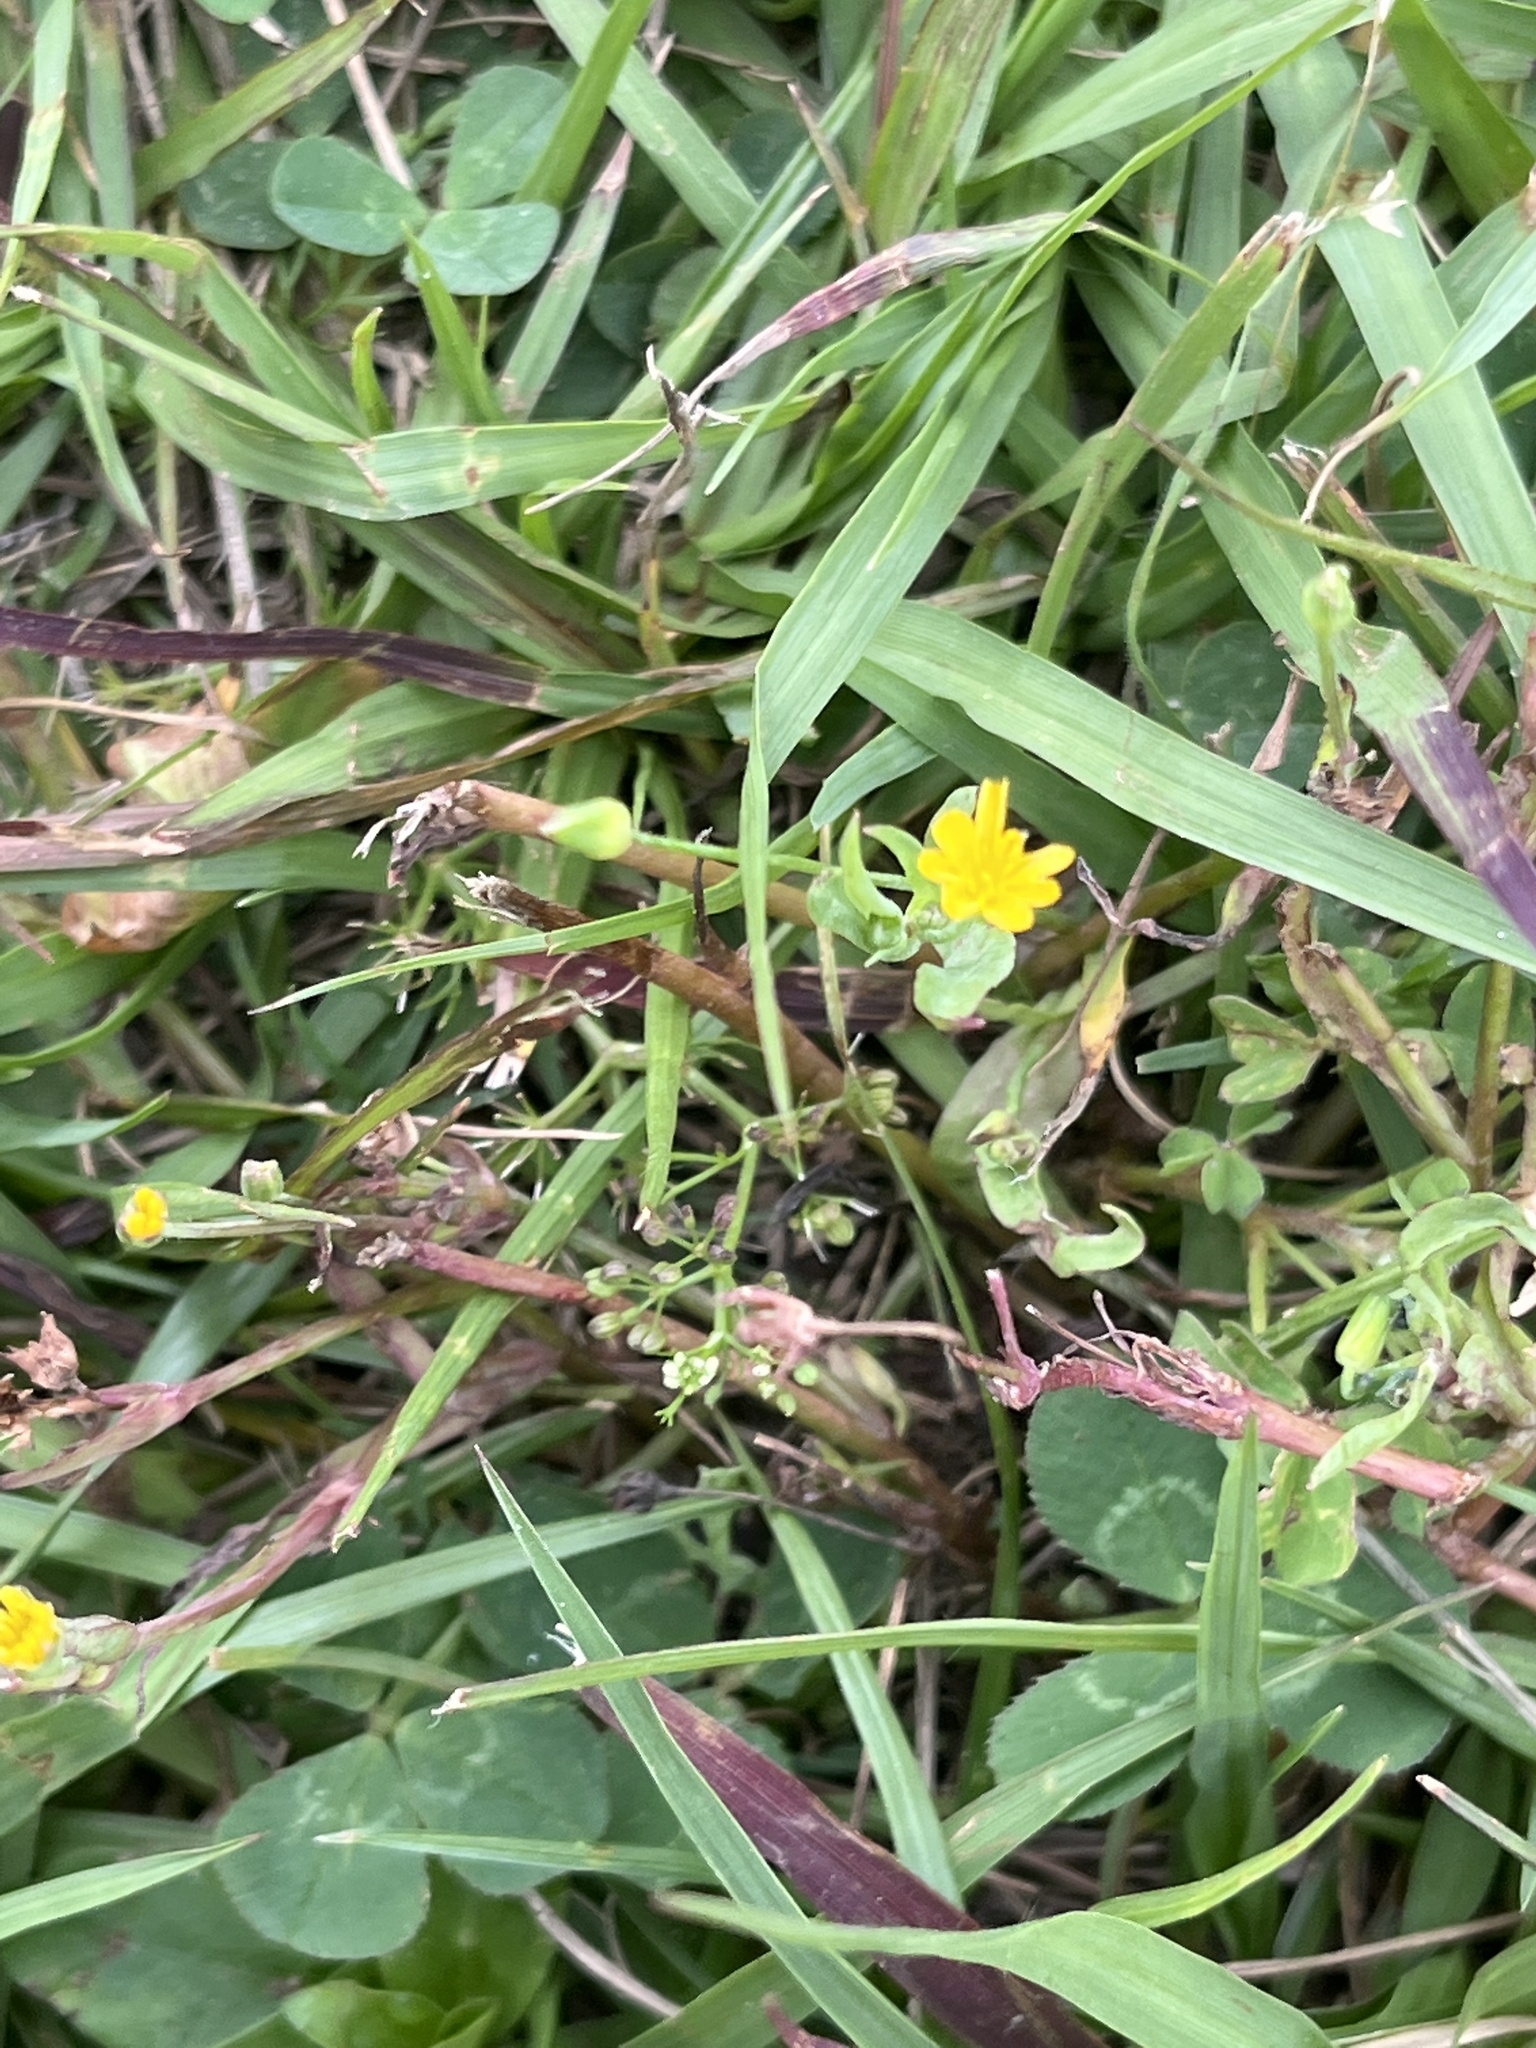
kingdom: Plantae
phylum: Tracheophyta
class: Magnoliopsida
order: Asterales
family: Asteraceae
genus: Krigia
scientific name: Krigia cespitosa
